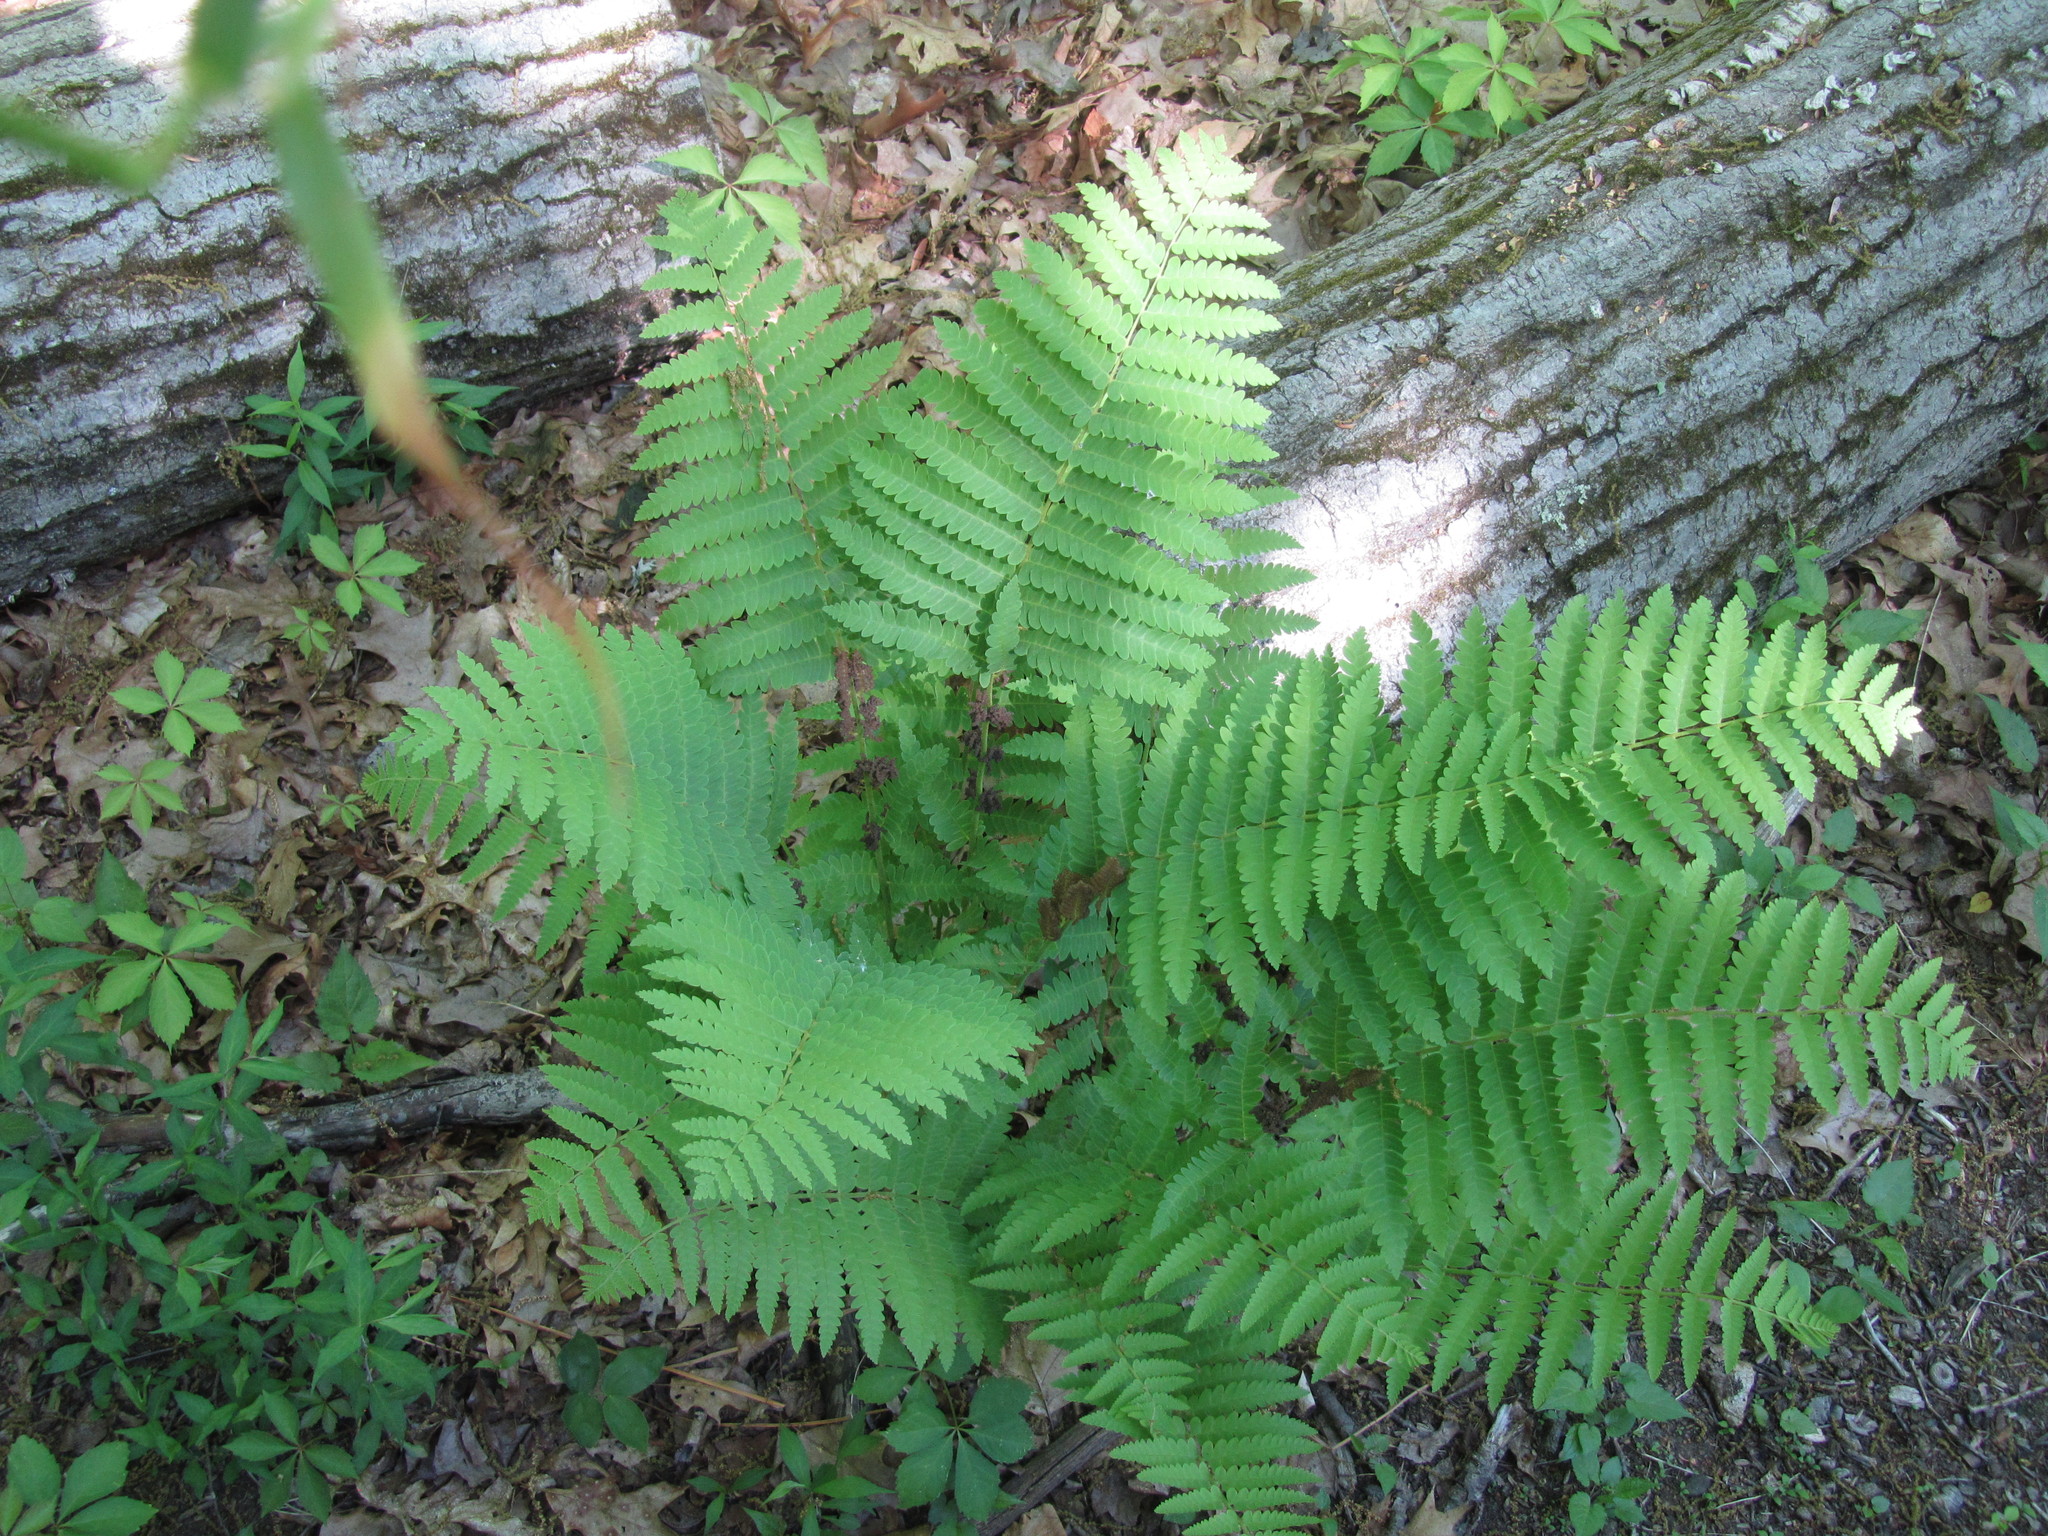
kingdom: Plantae
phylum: Tracheophyta
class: Polypodiopsida
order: Osmundales
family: Osmundaceae
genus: Claytosmunda
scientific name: Claytosmunda claytoniana
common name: Clayton's fern
